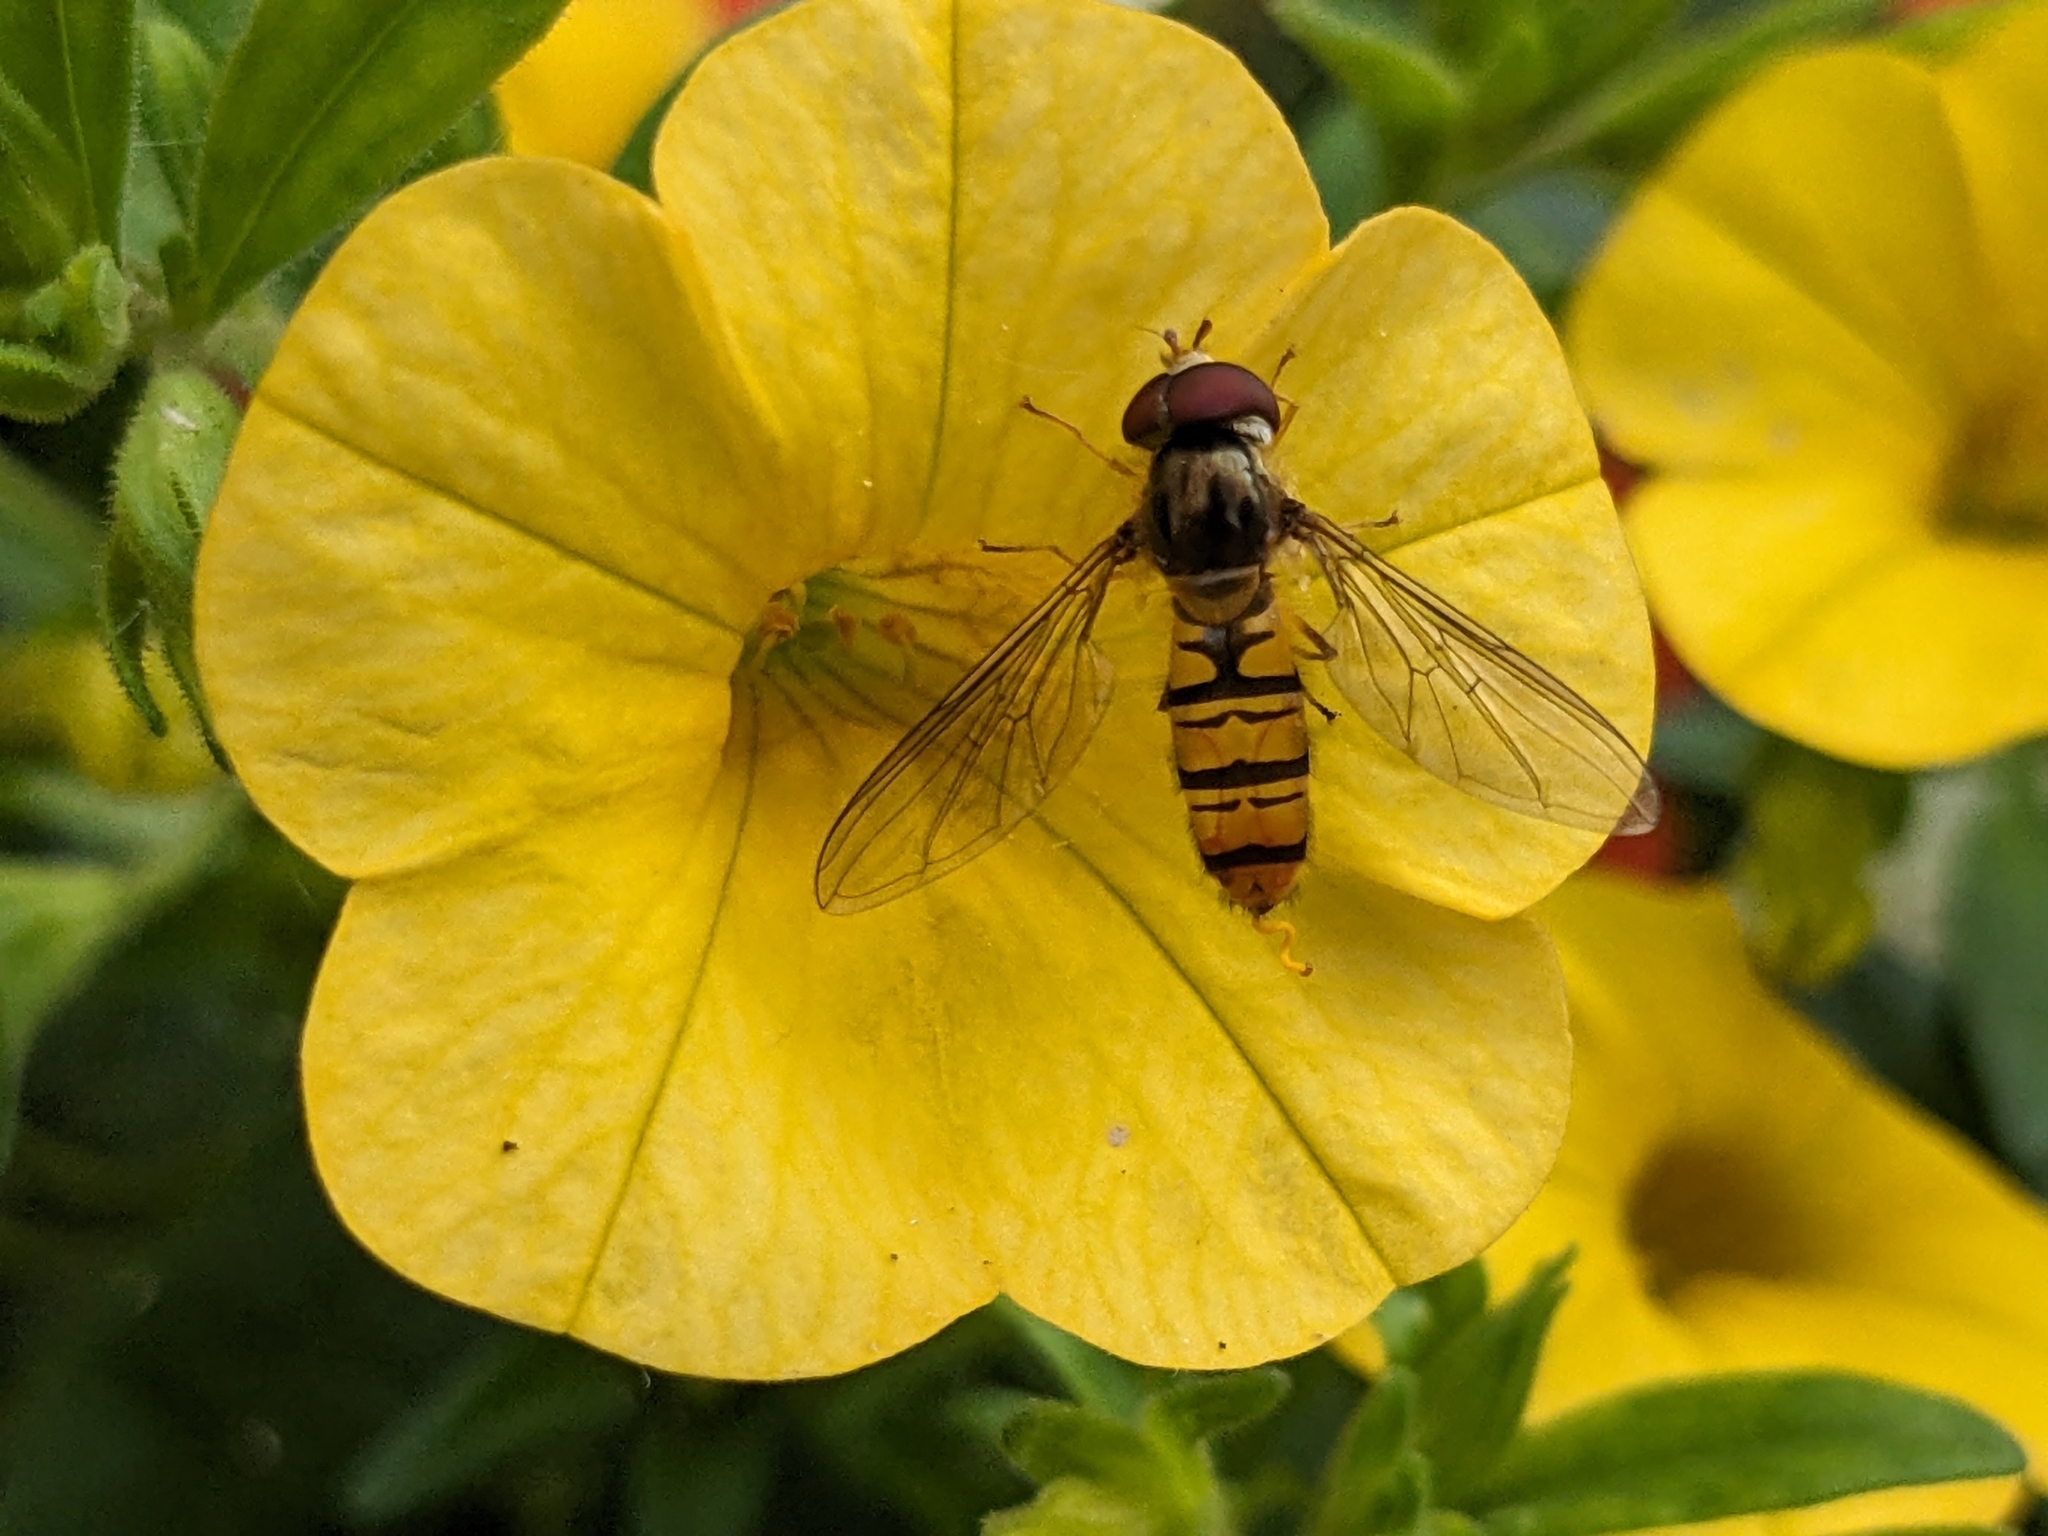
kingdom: Animalia
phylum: Arthropoda
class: Insecta
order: Diptera
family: Syrphidae
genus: Episyrphus
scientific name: Episyrphus balteatus
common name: Marmalade hoverfly
